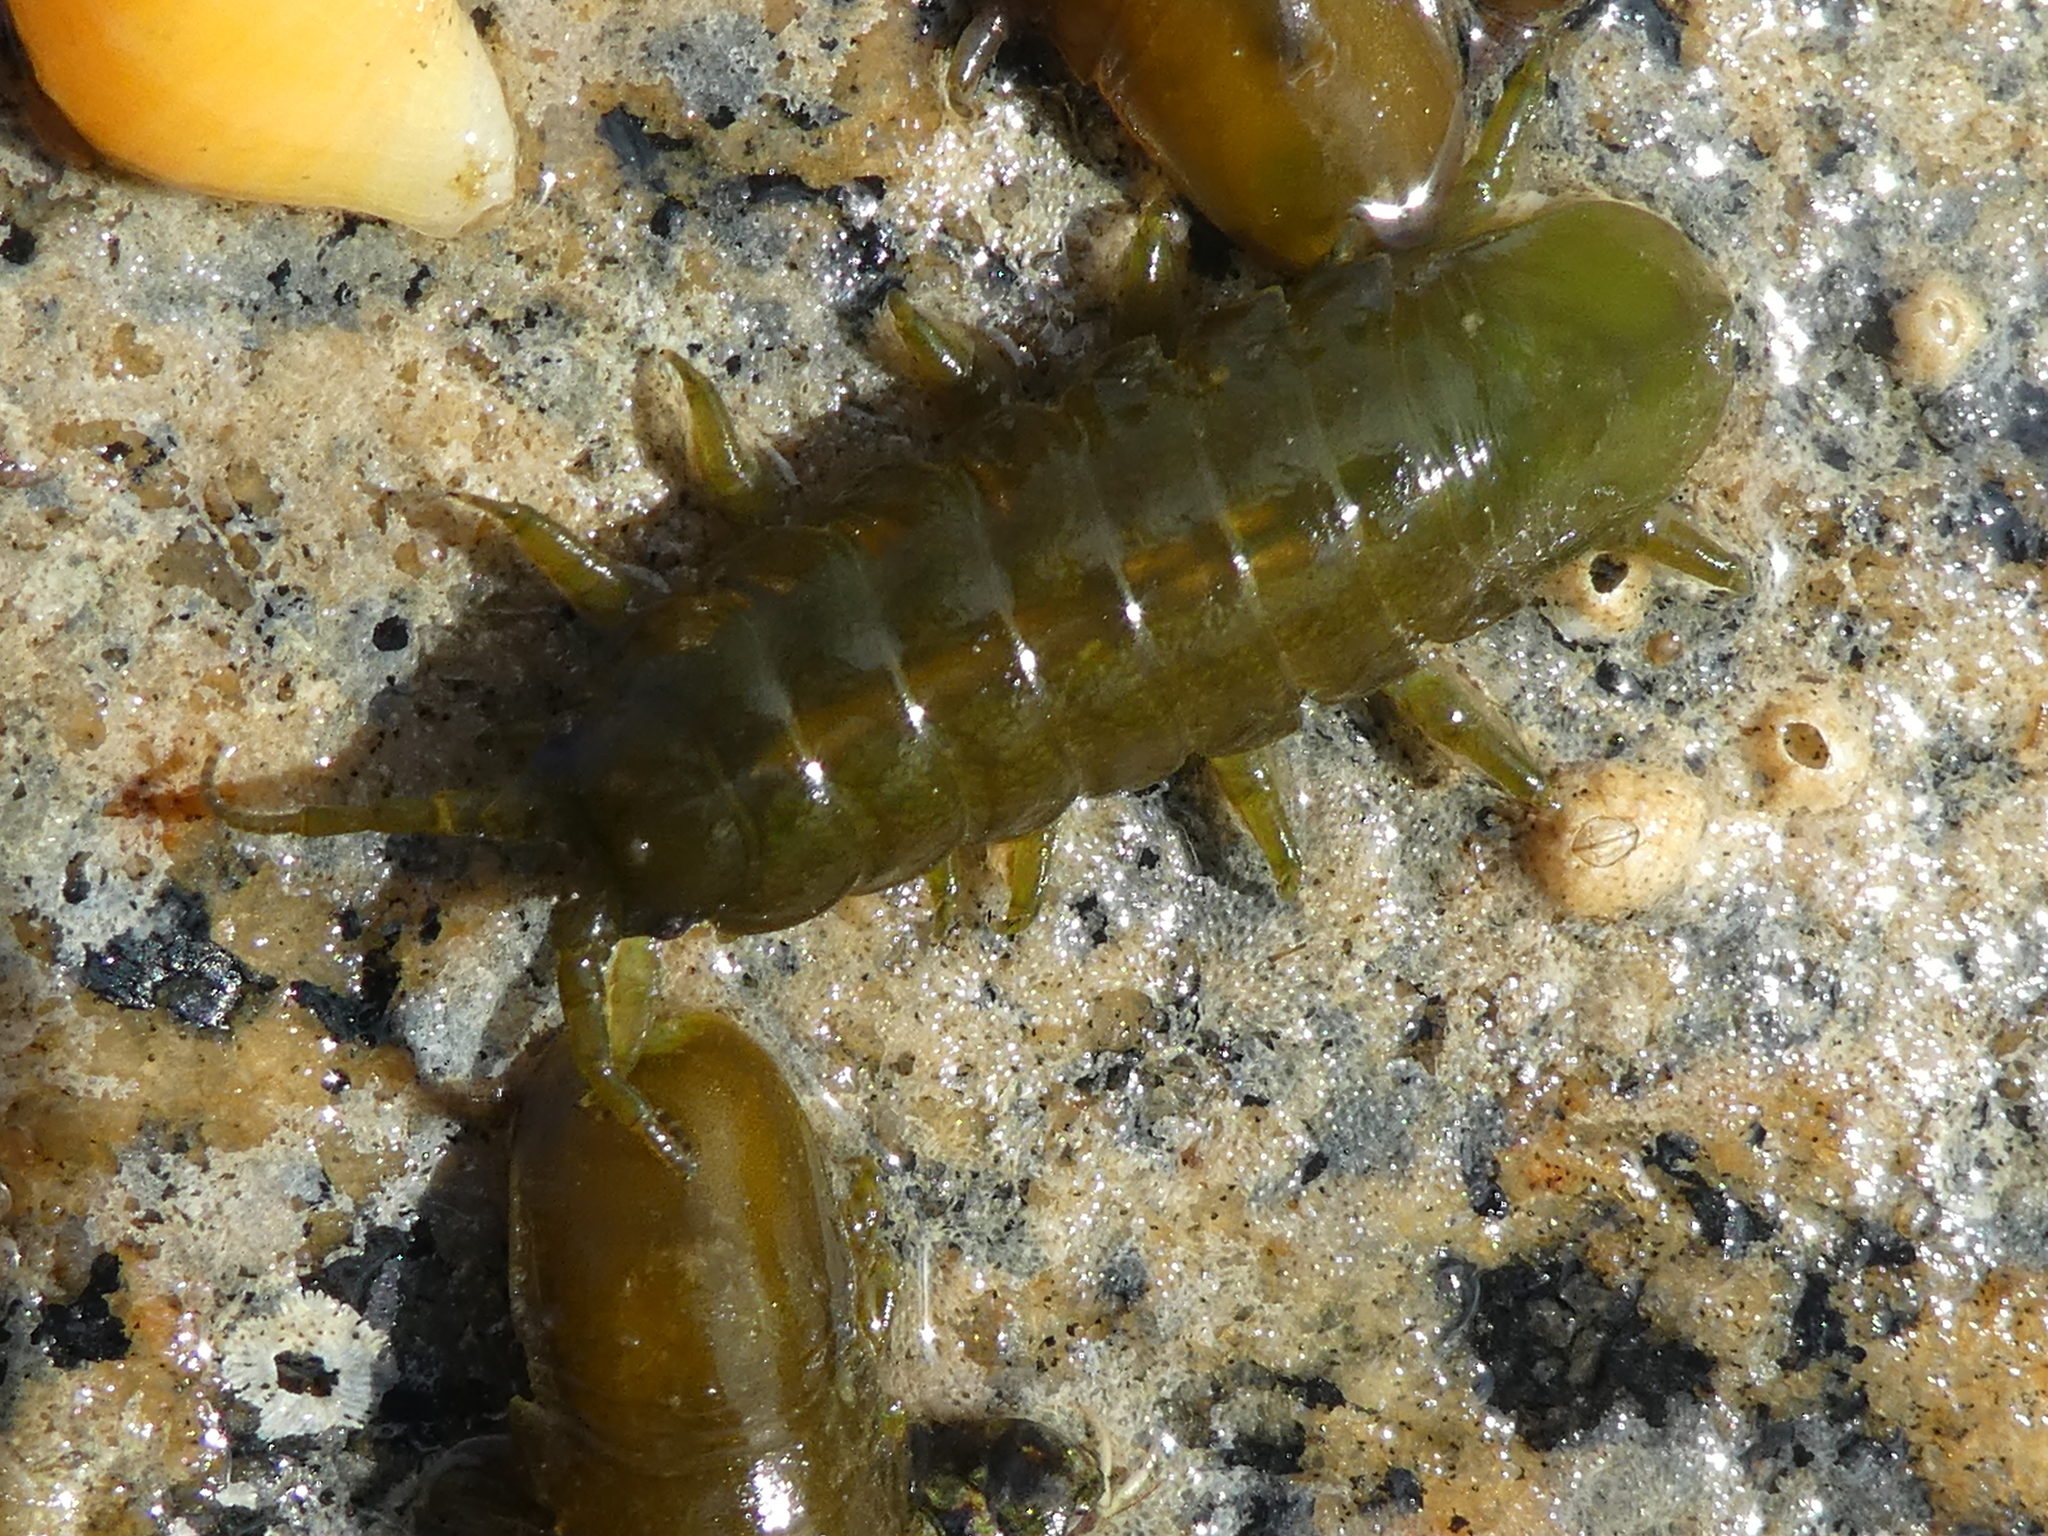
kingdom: Animalia
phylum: Arthropoda
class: Malacostraca
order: Isopoda
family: Idoteidae
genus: Pentidotea
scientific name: Pentidotea wosnesenskii
